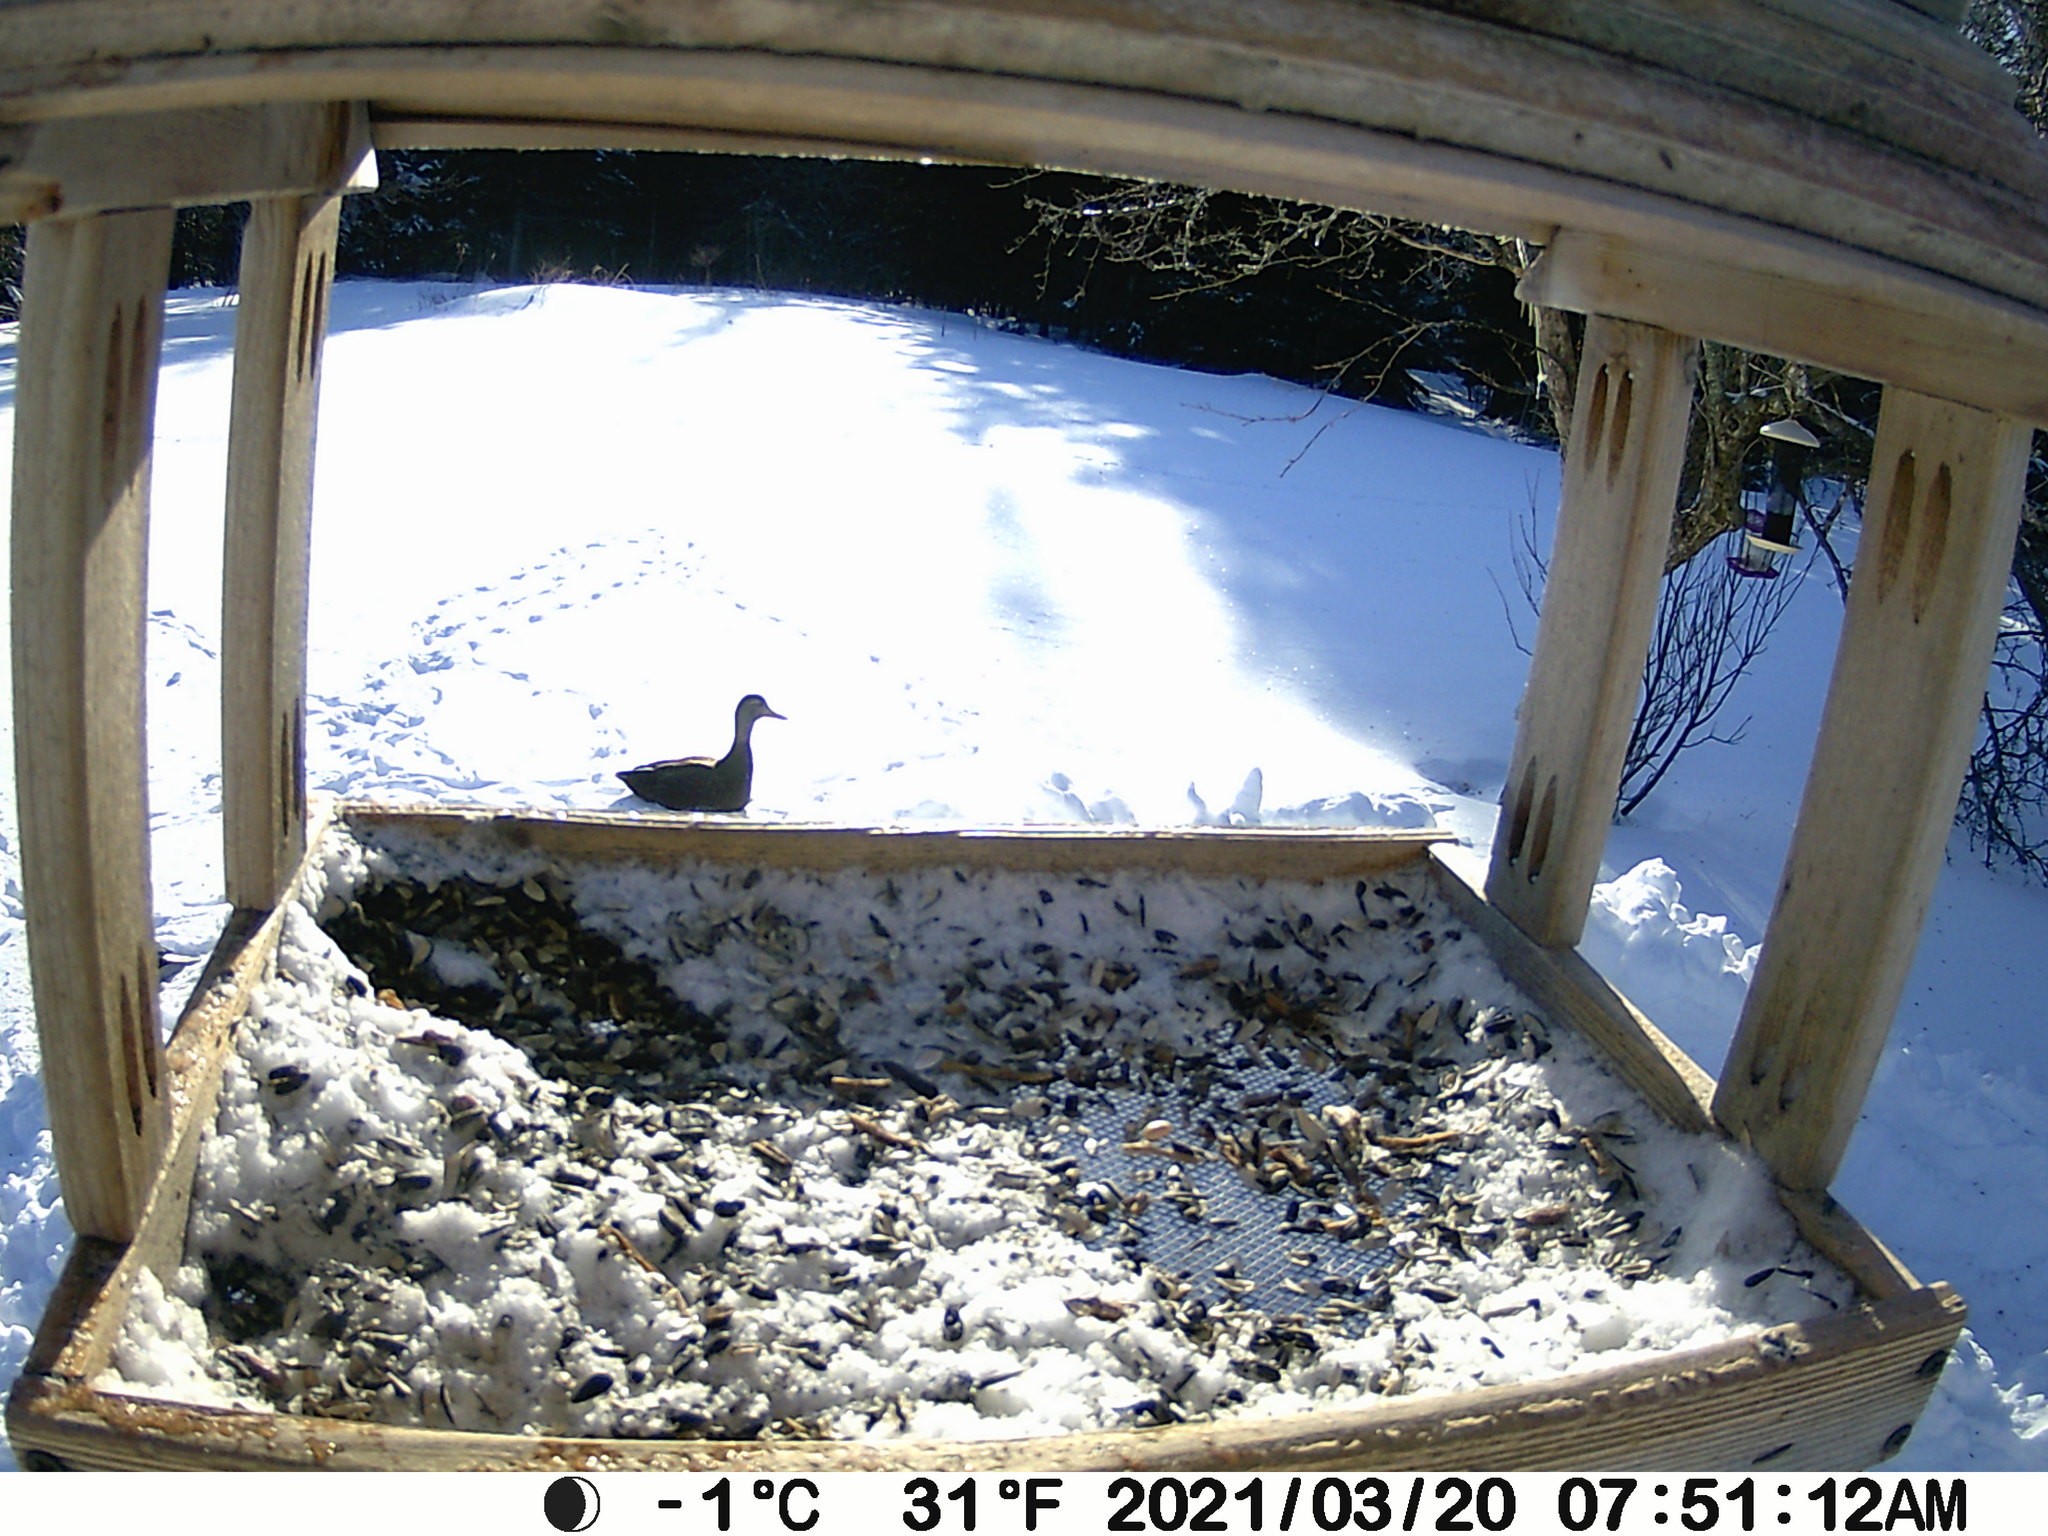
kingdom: Animalia
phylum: Chordata
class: Aves
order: Anseriformes
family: Anatidae
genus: Anas
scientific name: Anas rubripes
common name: American black duck
